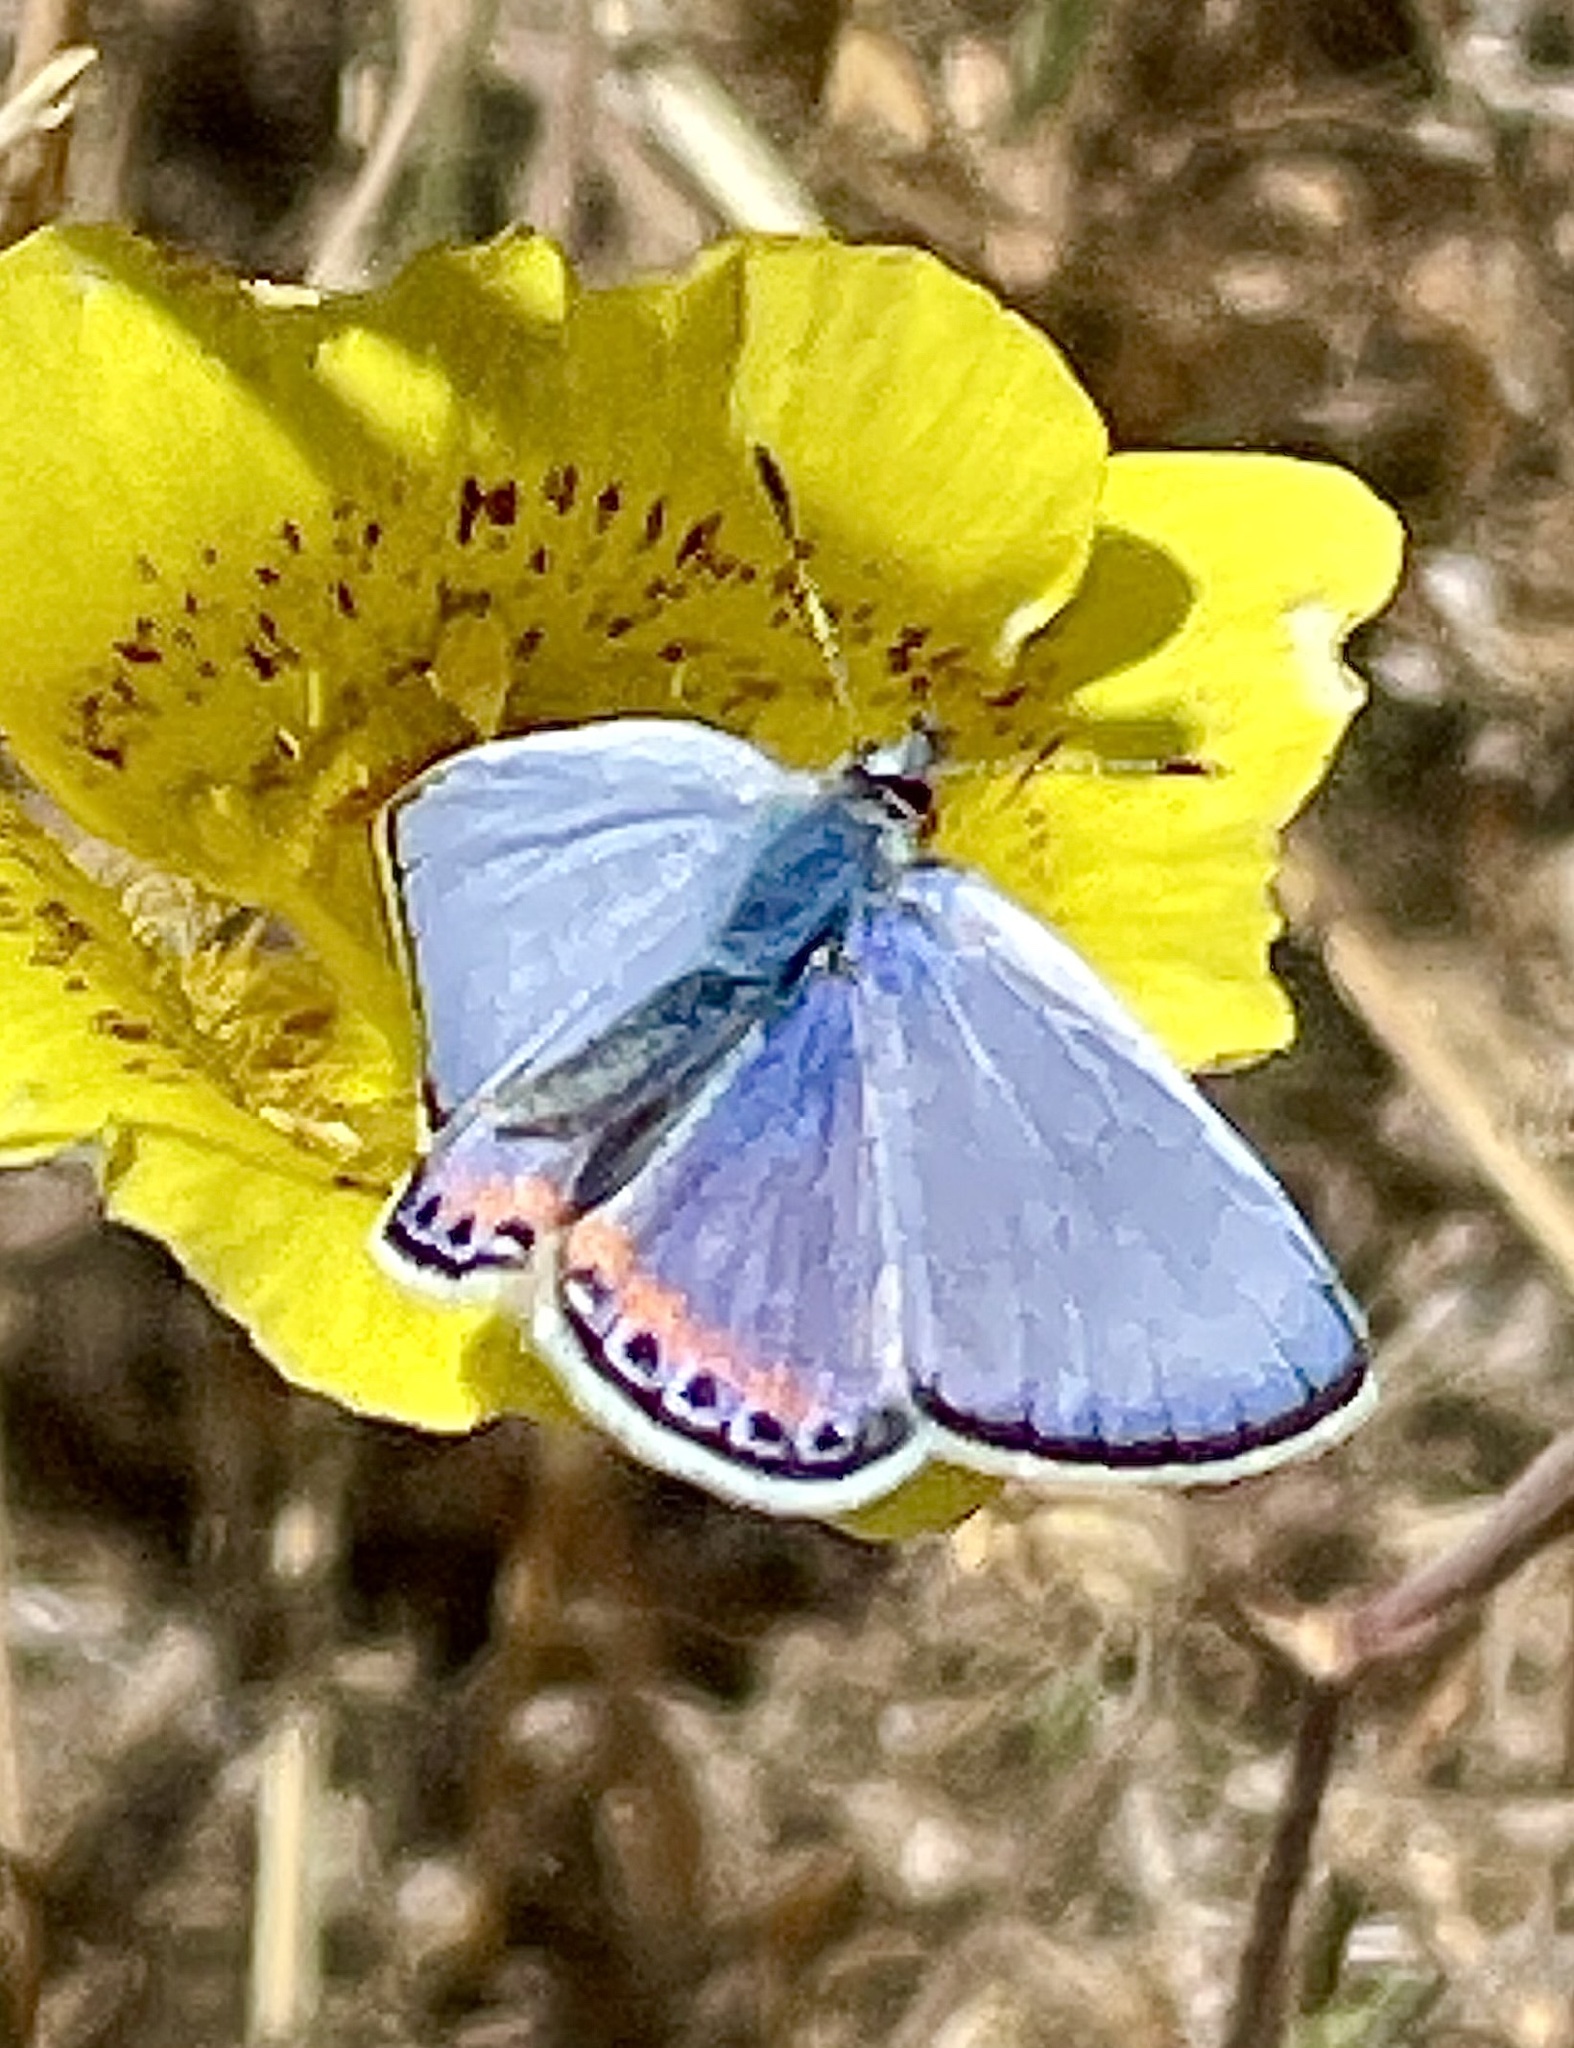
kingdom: Animalia
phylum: Arthropoda
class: Insecta
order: Lepidoptera
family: Lycaenidae
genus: Icaricia
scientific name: Icaricia acmon
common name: Acmon blue
